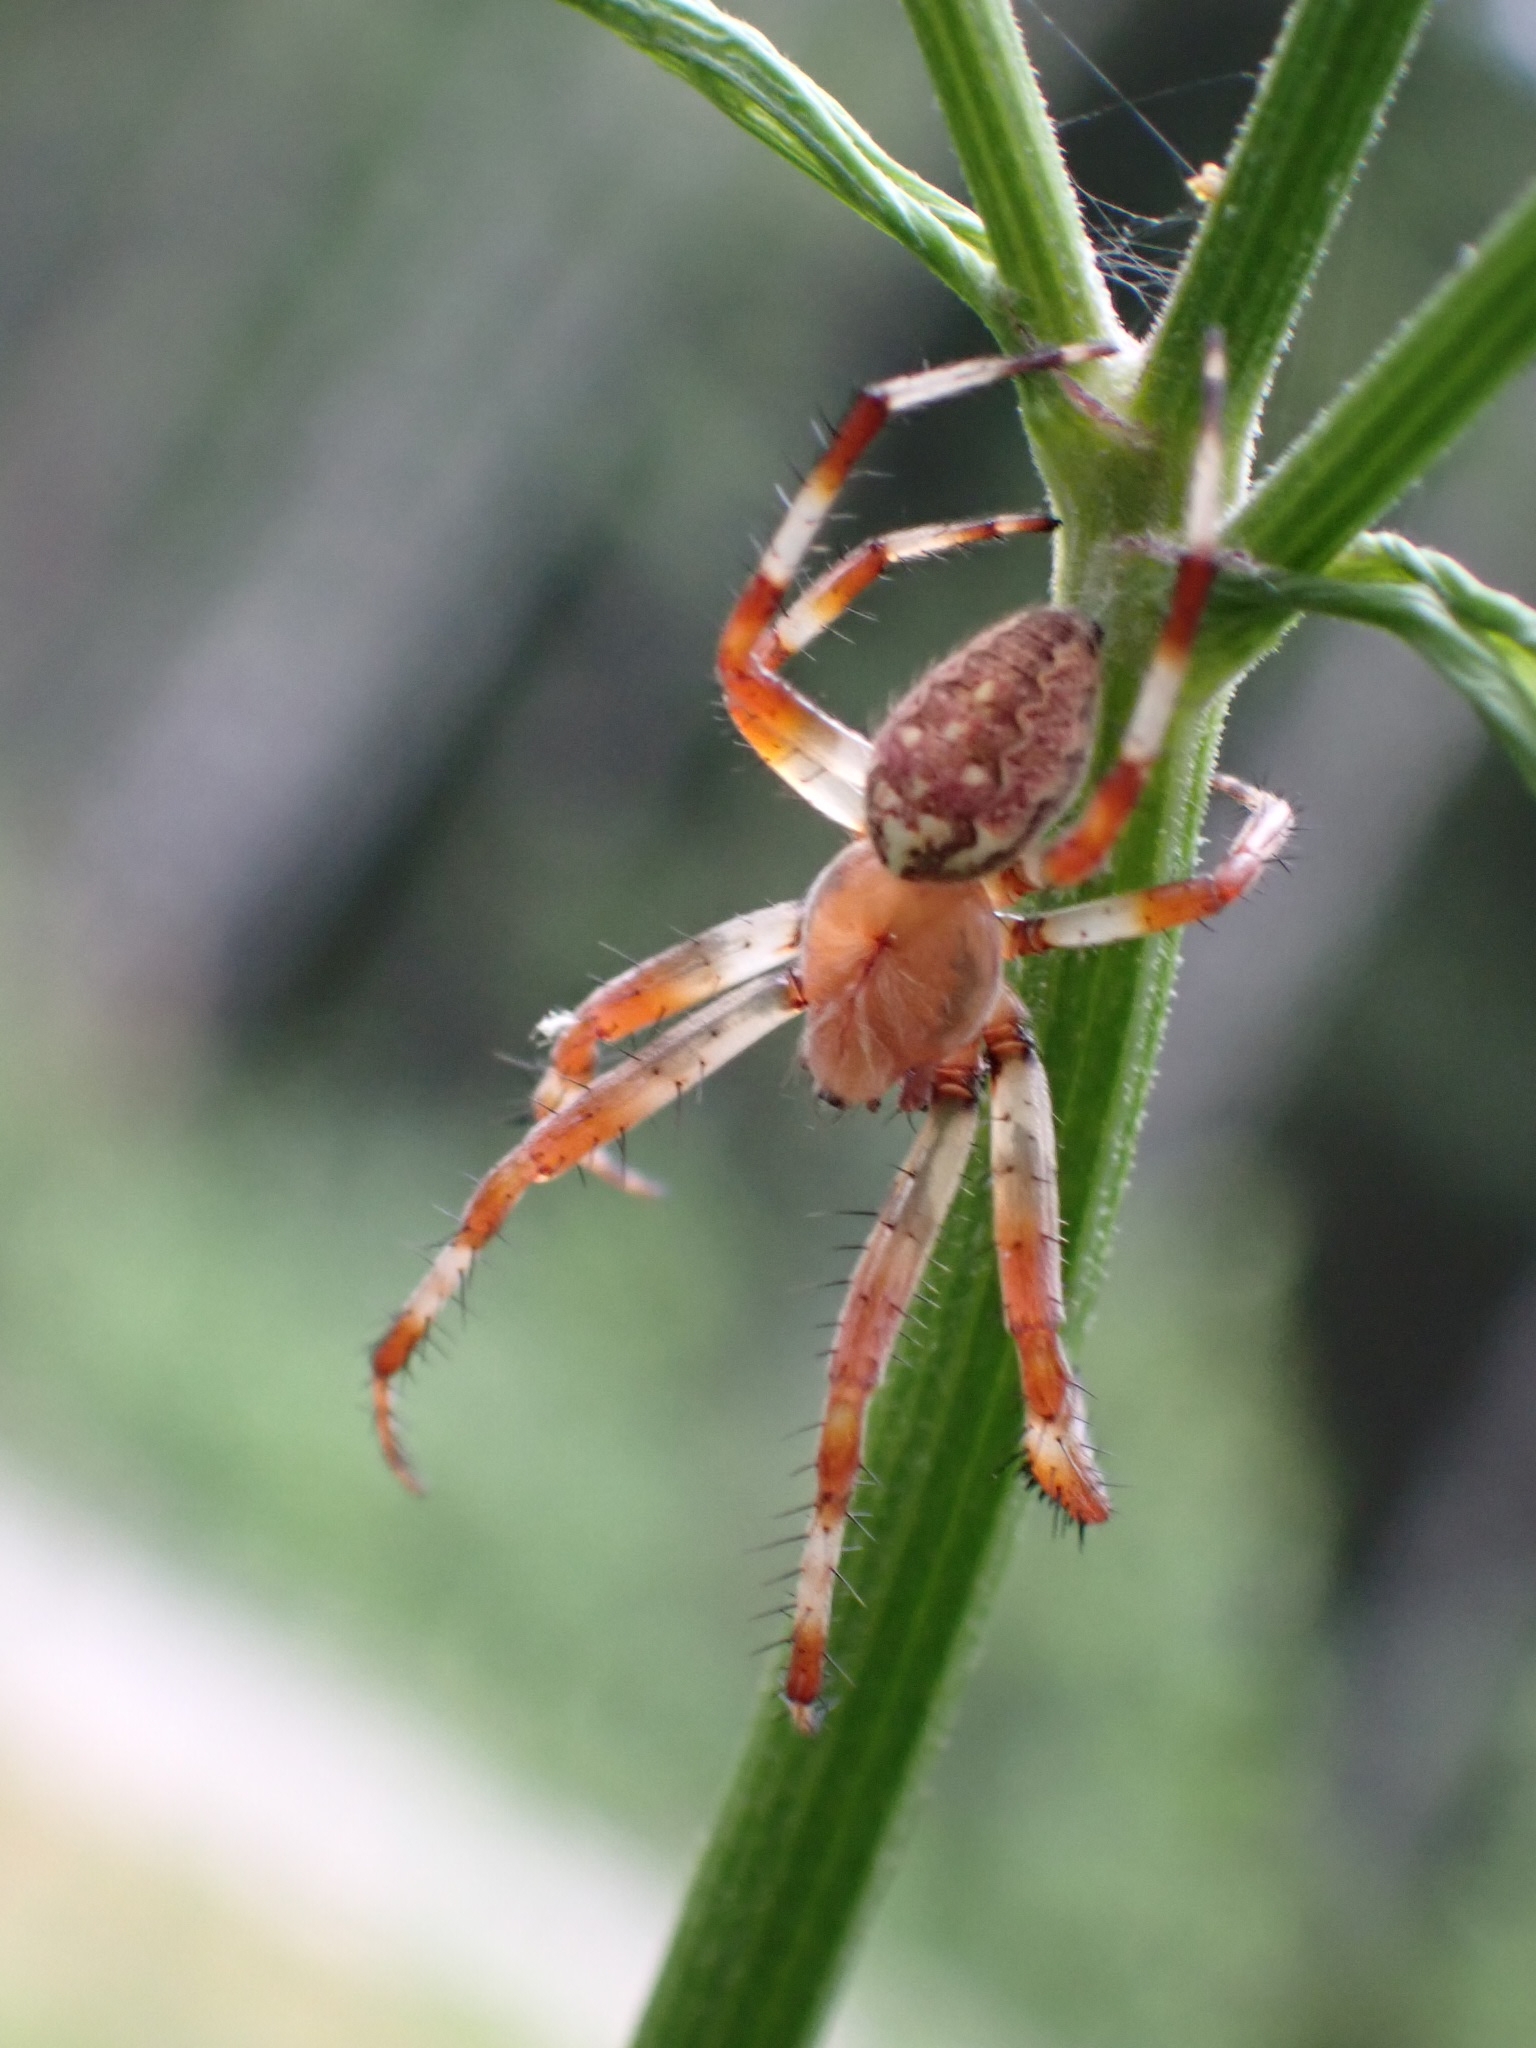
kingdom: Animalia
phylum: Arthropoda
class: Arachnida
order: Araneae
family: Araneidae
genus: Araneus
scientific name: Araneus marmoreus
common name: Marbled orbweaver
